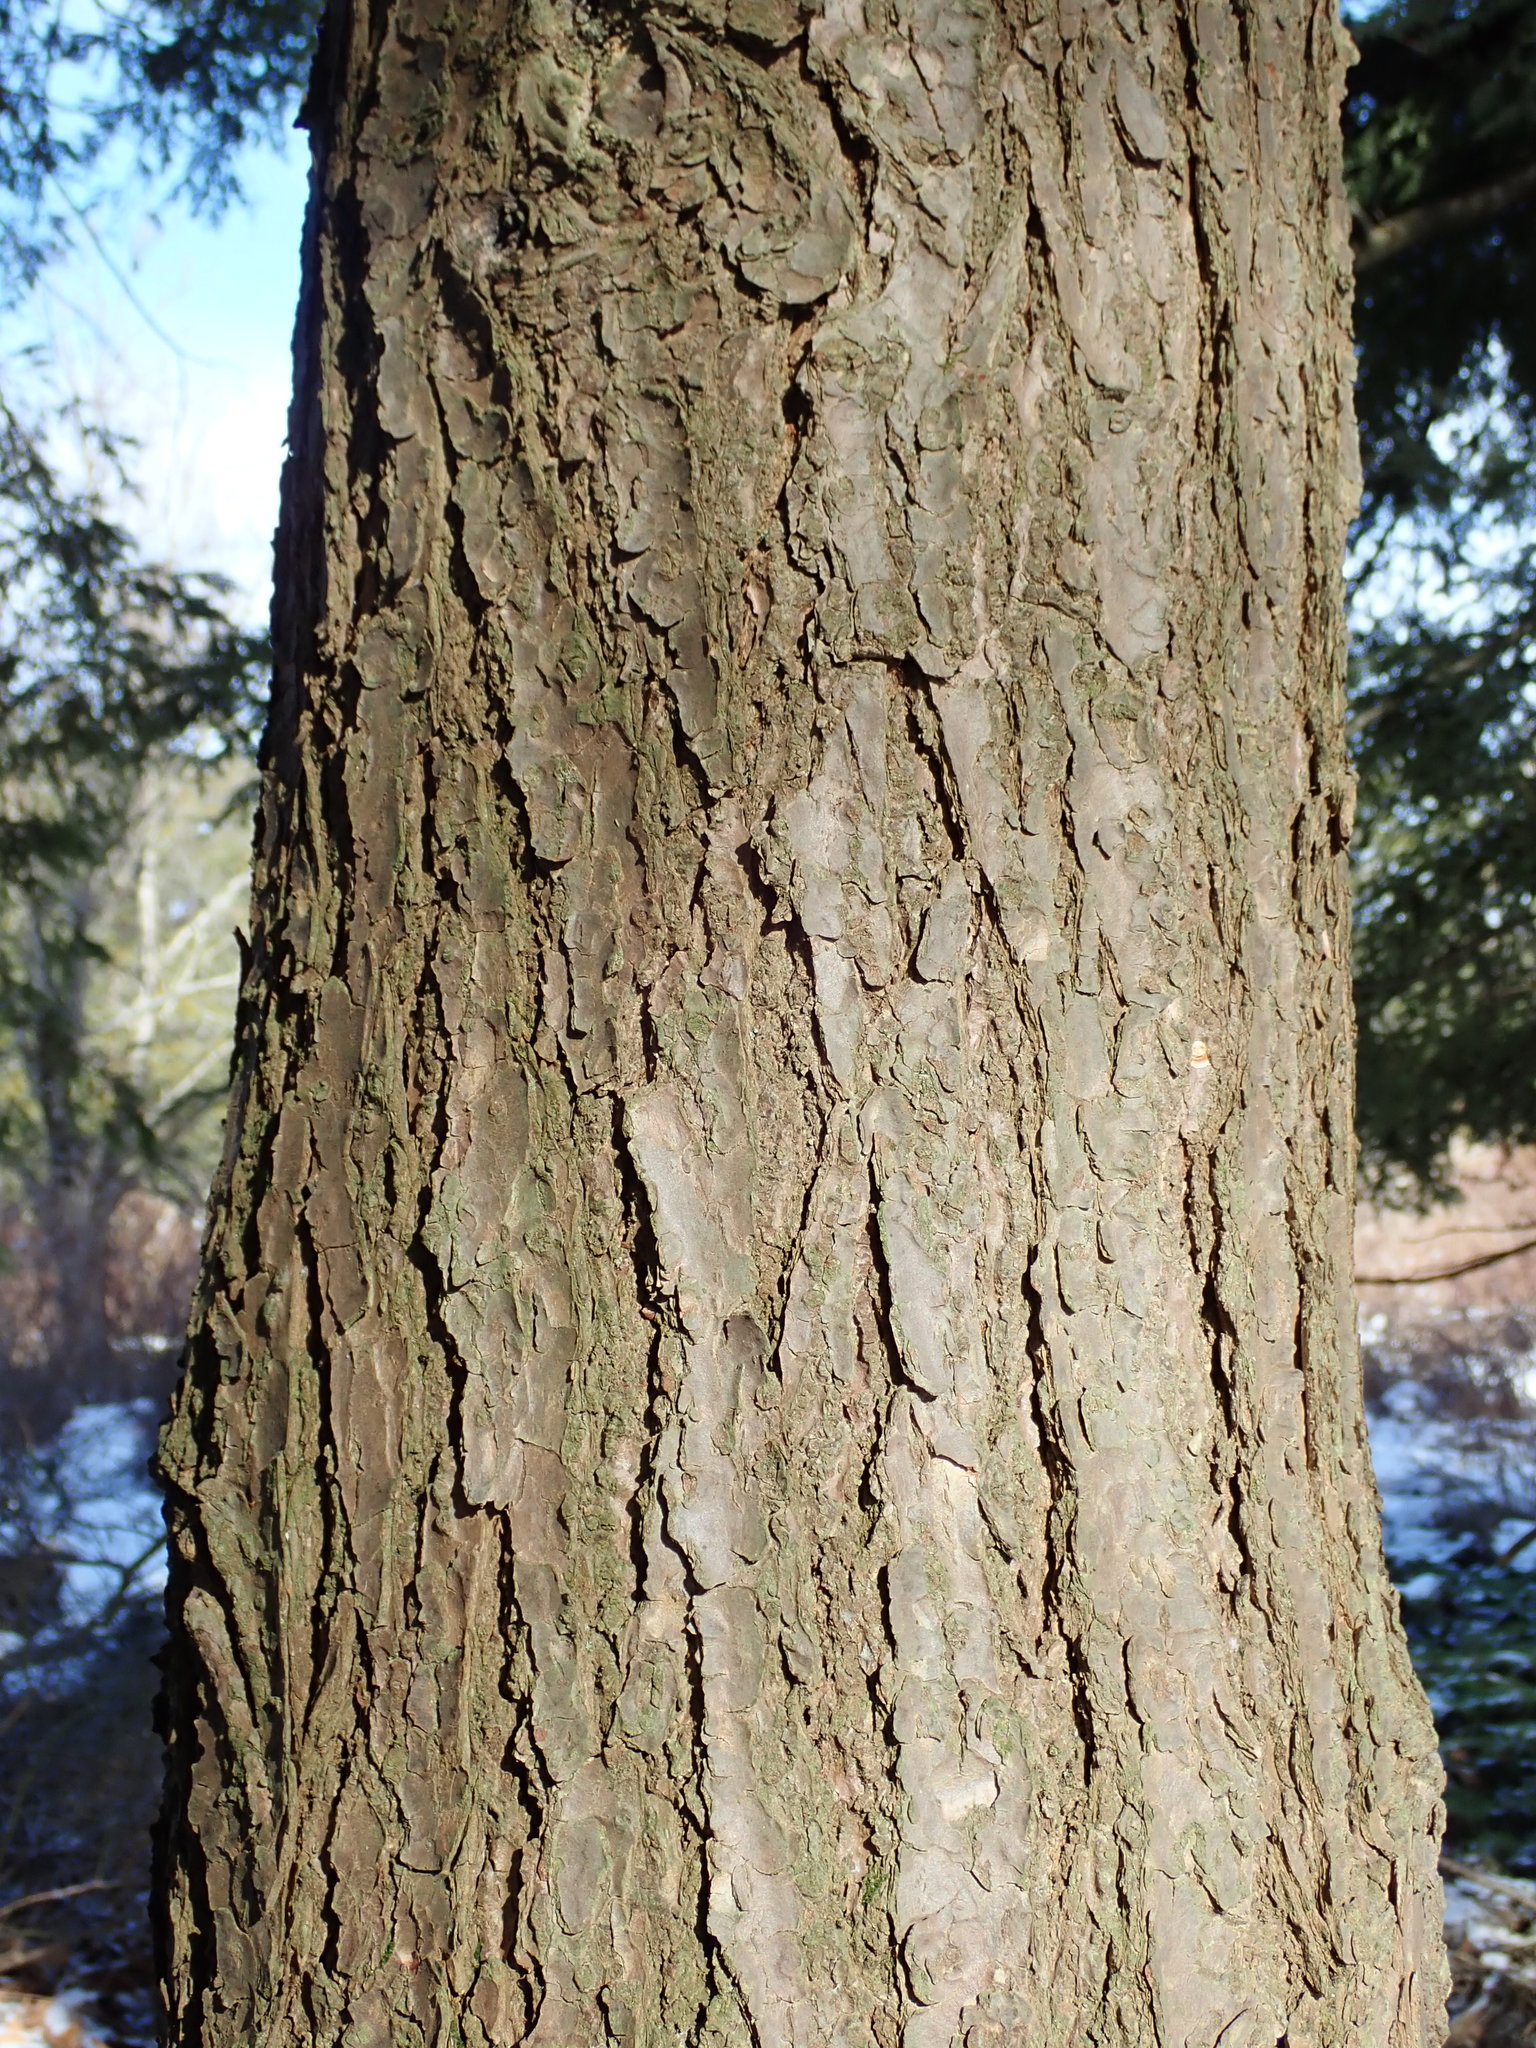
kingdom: Plantae
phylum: Tracheophyta
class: Pinopsida
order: Pinales
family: Pinaceae
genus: Tsuga
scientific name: Tsuga canadensis
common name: Eastern hemlock
